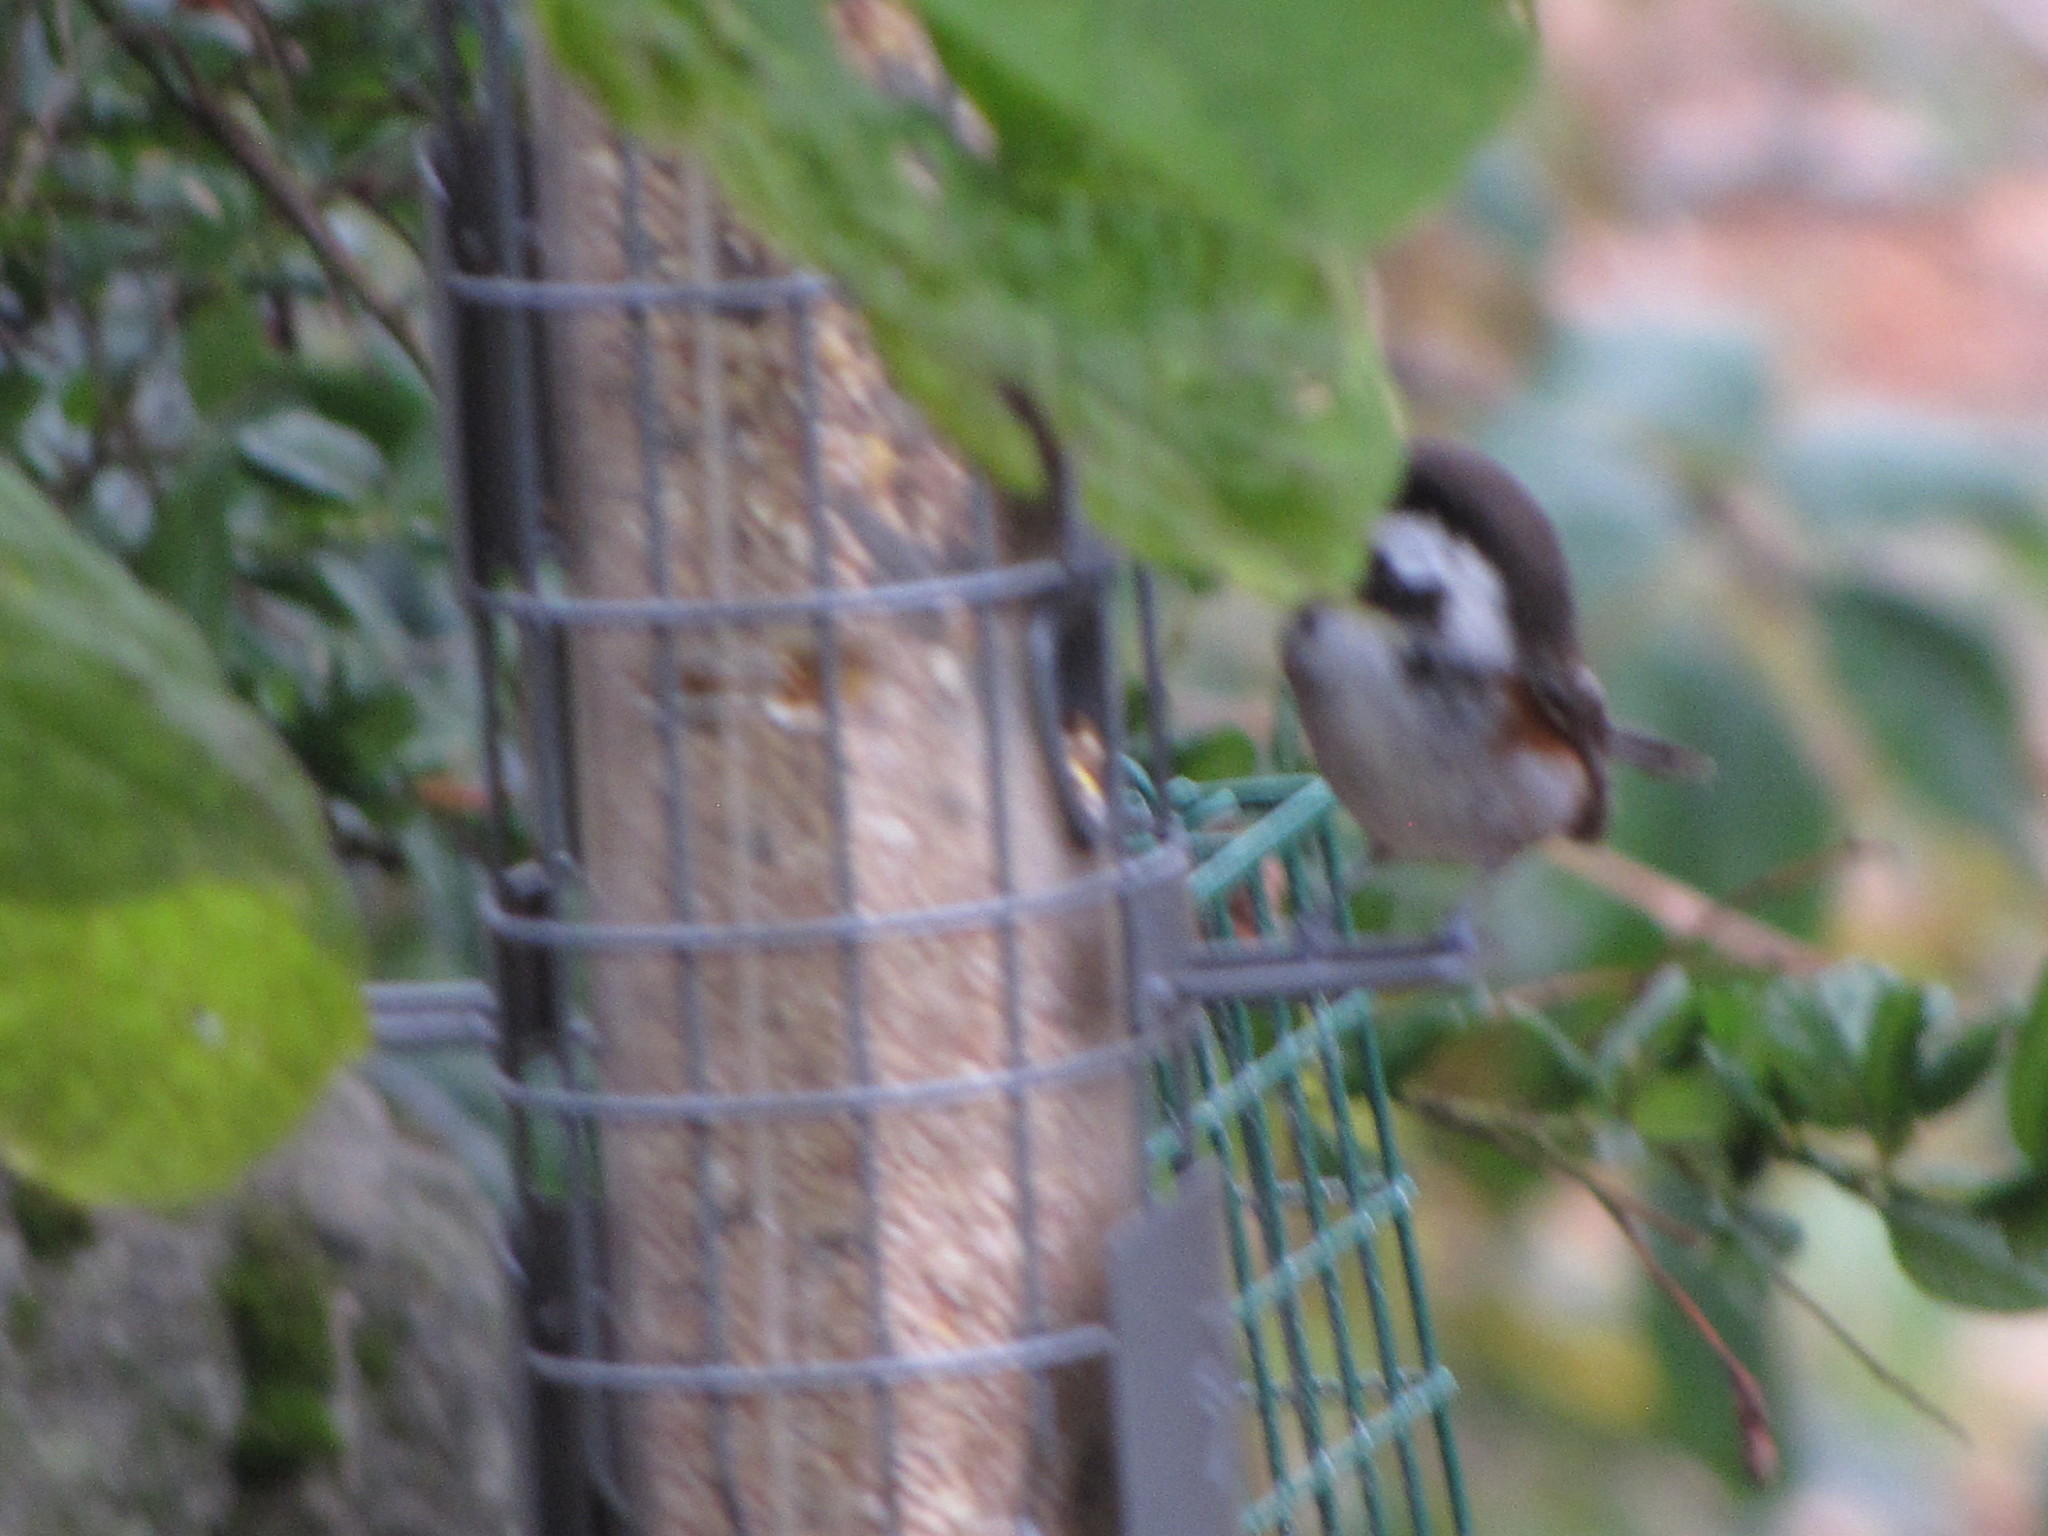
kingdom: Animalia
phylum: Chordata
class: Aves
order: Passeriformes
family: Paridae
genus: Poecile
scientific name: Poecile rufescens
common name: Chestnut-backed chickadee
